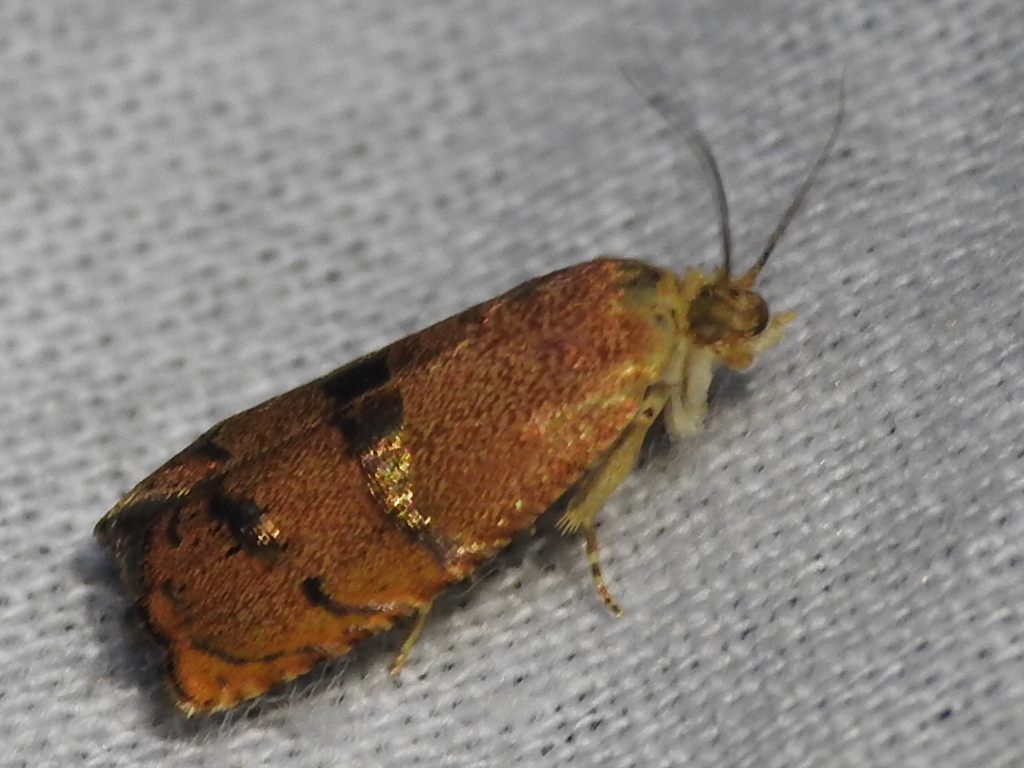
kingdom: Animalia
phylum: Arthropoda
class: Insecta
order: Lepidoptera
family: Tortricidae
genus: Cydia
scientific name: Cydia latiferreana
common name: Filbertworm moth
